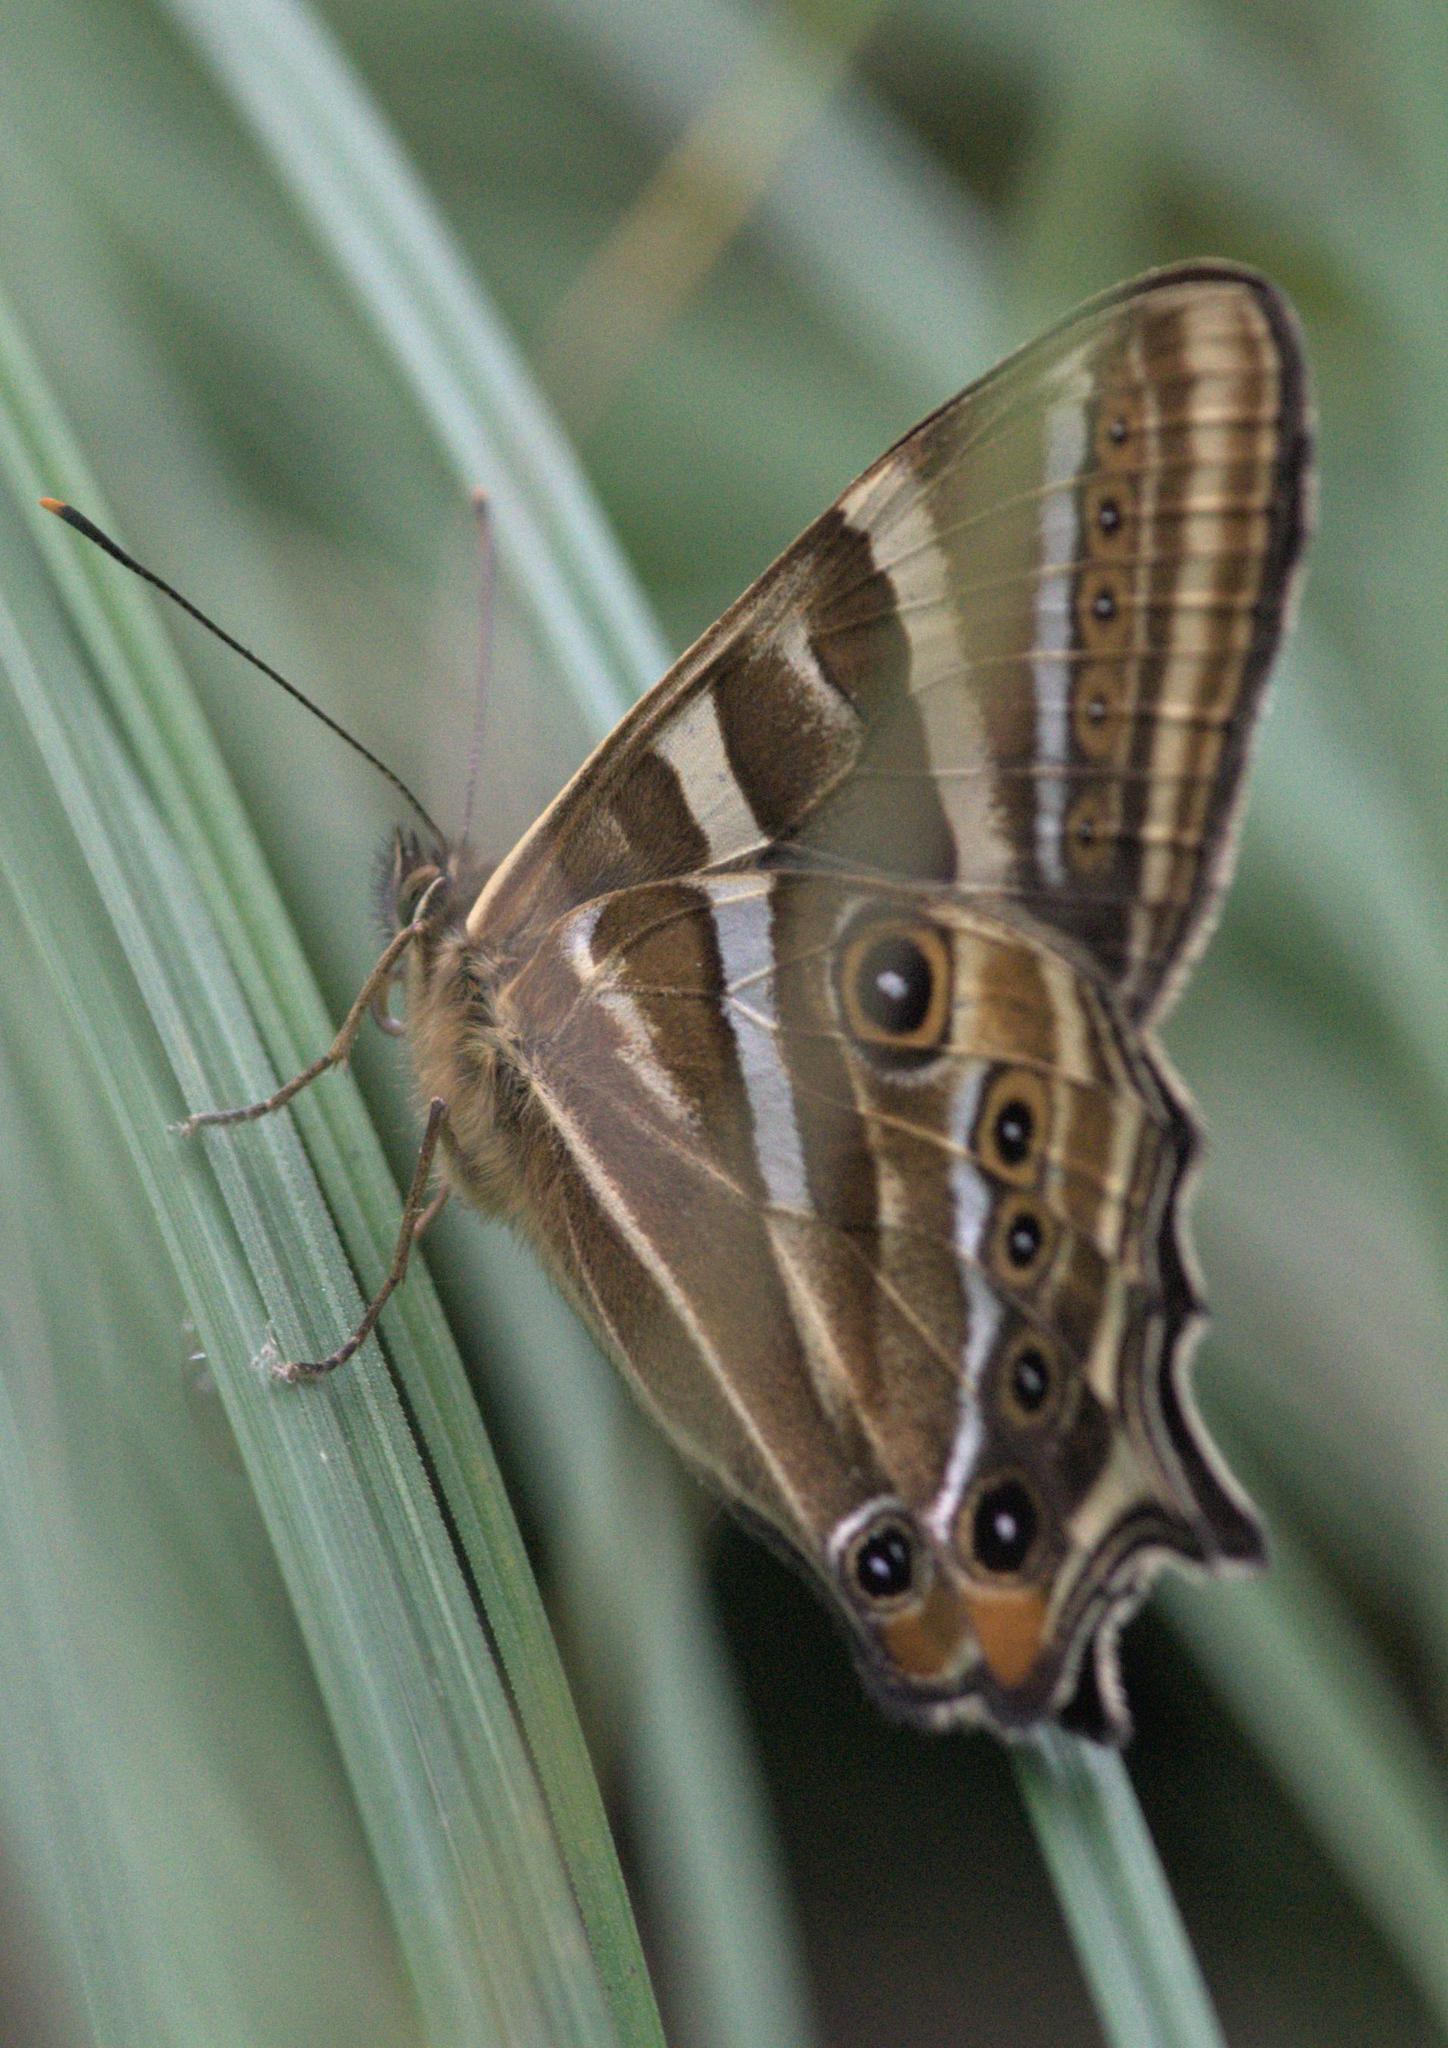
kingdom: Animalia
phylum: Arthropoda
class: Insecta
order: Lepidoptera
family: Nymphalidae
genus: Lethe
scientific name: Lethe baladeva
